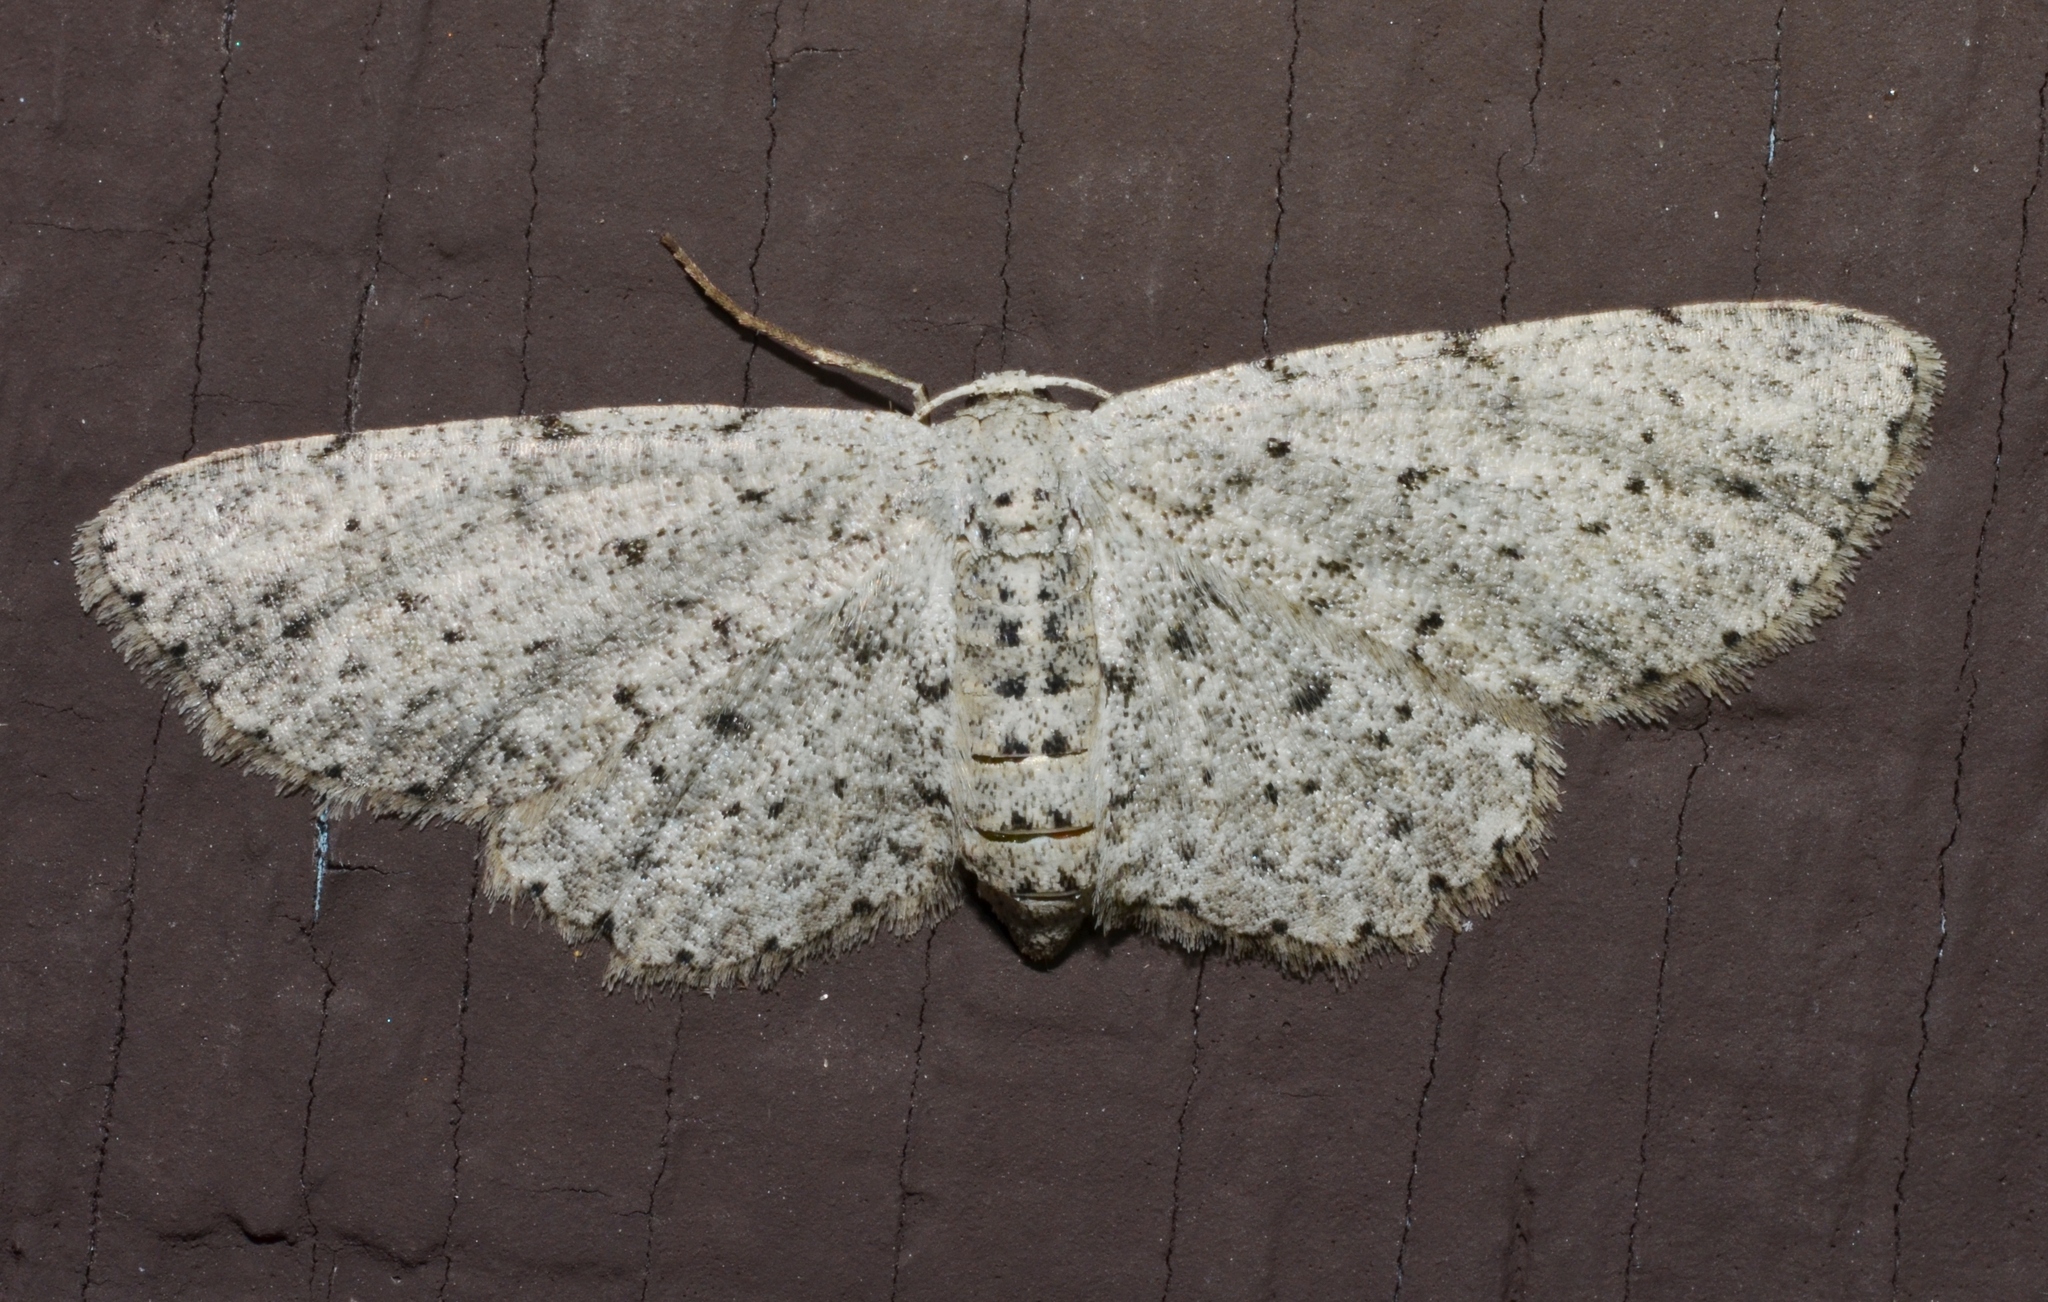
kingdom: Animalia
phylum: Arthropoda
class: Insecta
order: Lepidoptera
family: Geometridae
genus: Glena
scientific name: Glena cribrataria
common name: Dotted gray
